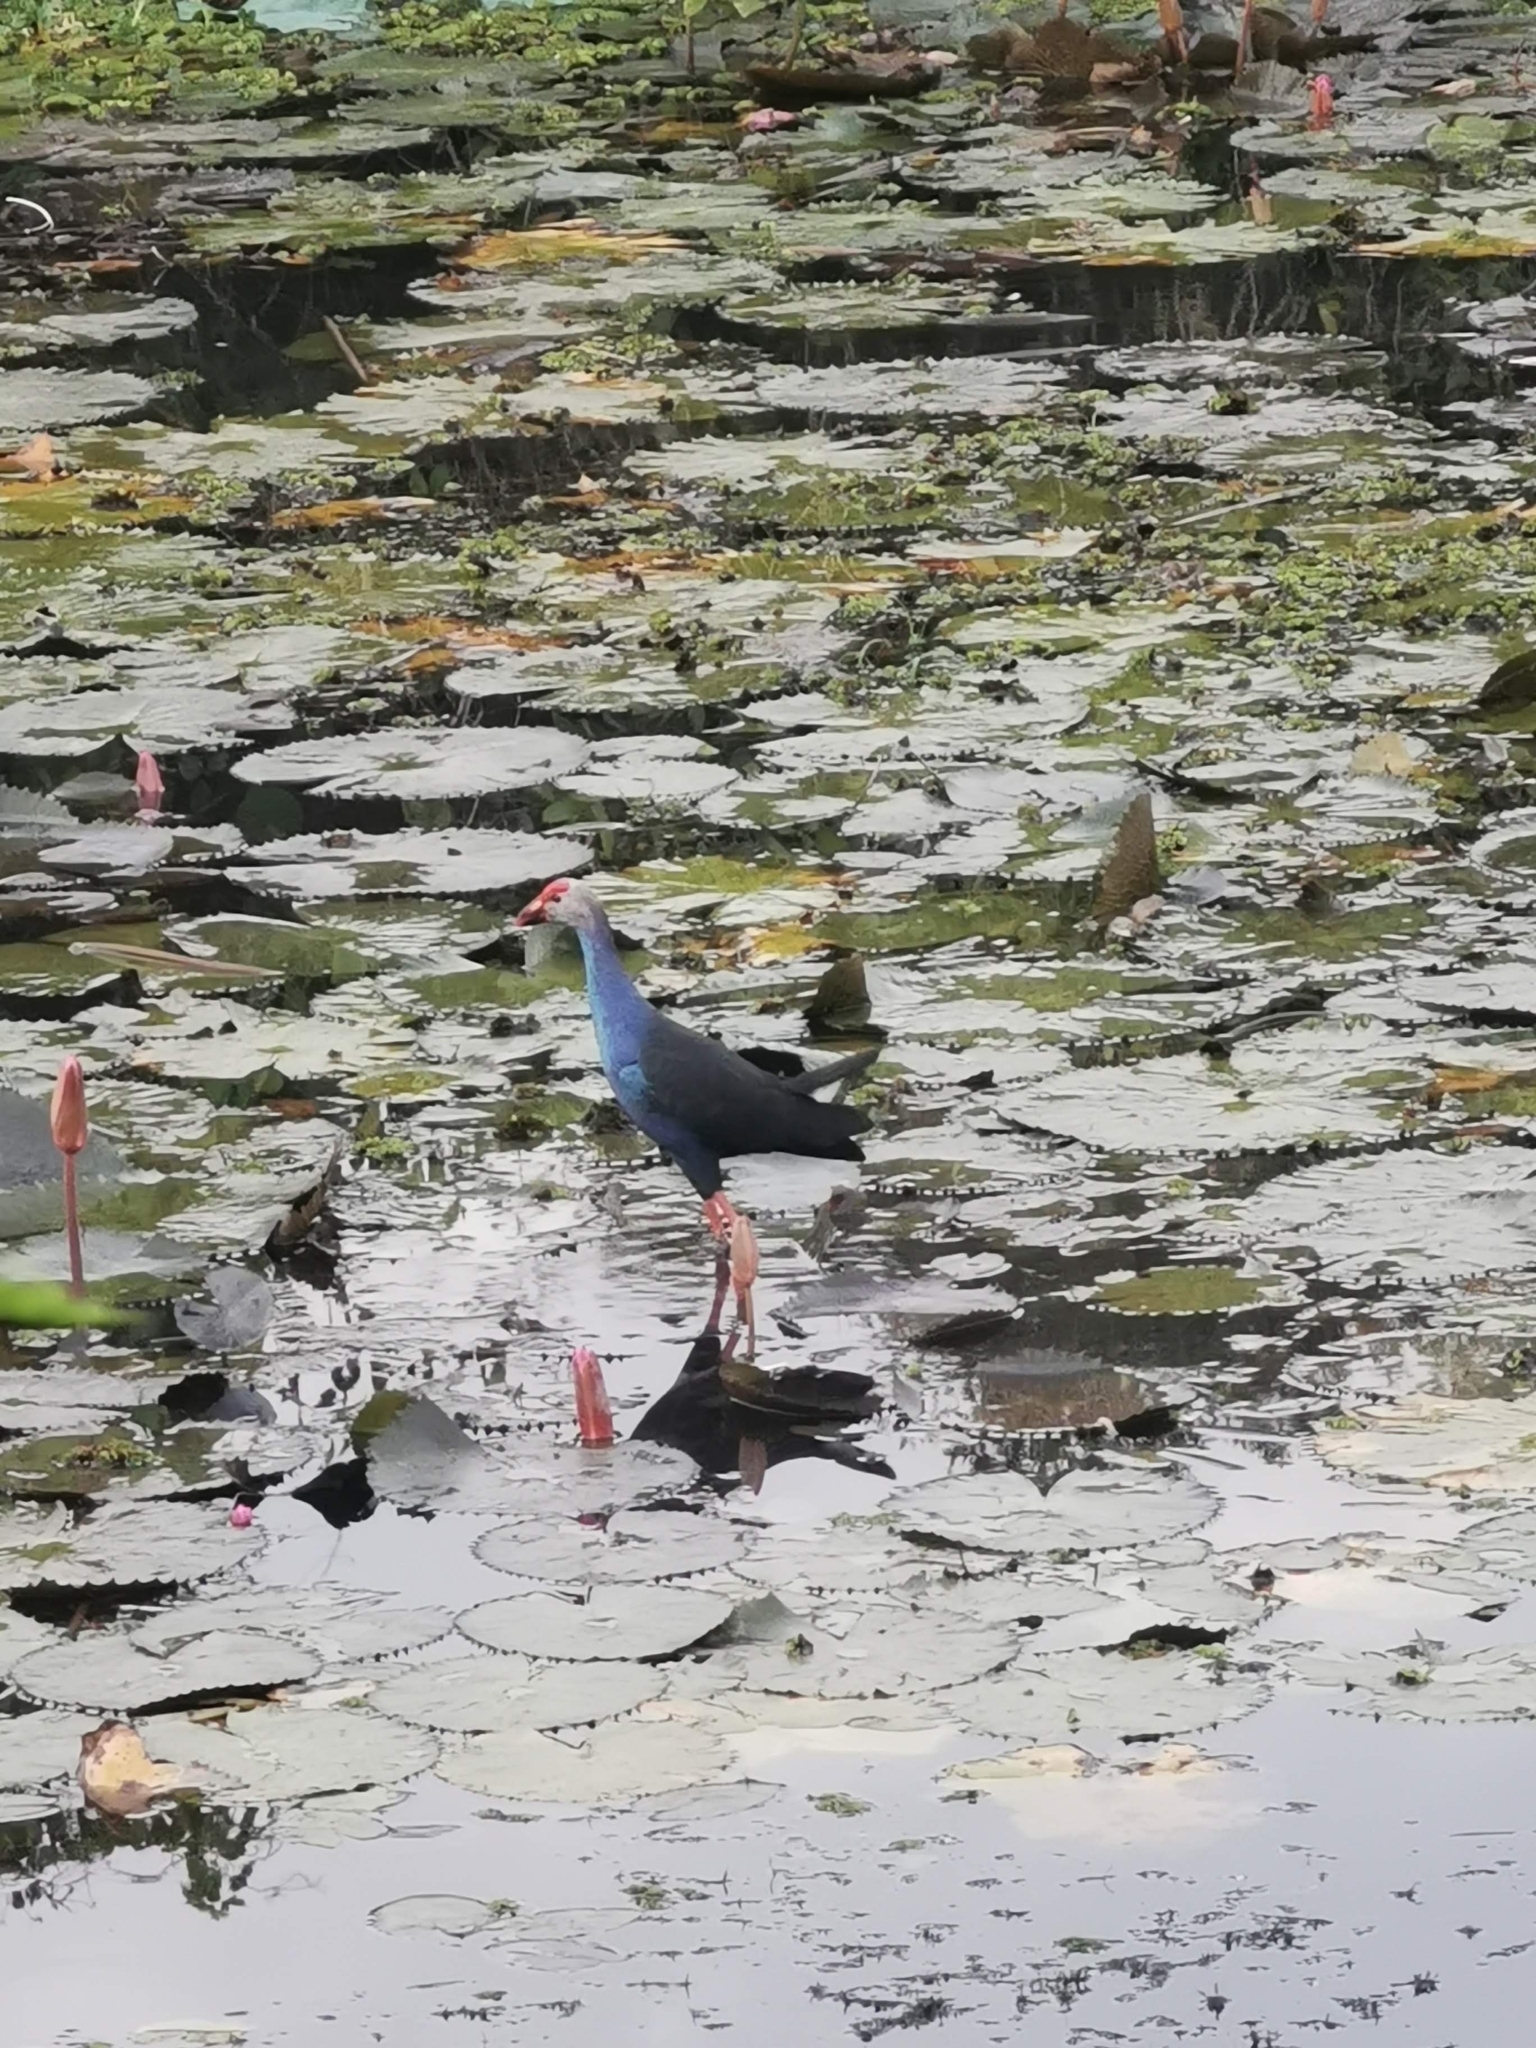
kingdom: Animalia
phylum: Chordata
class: Aves
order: Gruiformes
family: Rallidae
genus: Porphyrio
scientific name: Porphyrio porphyrio
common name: Purple swamphen
